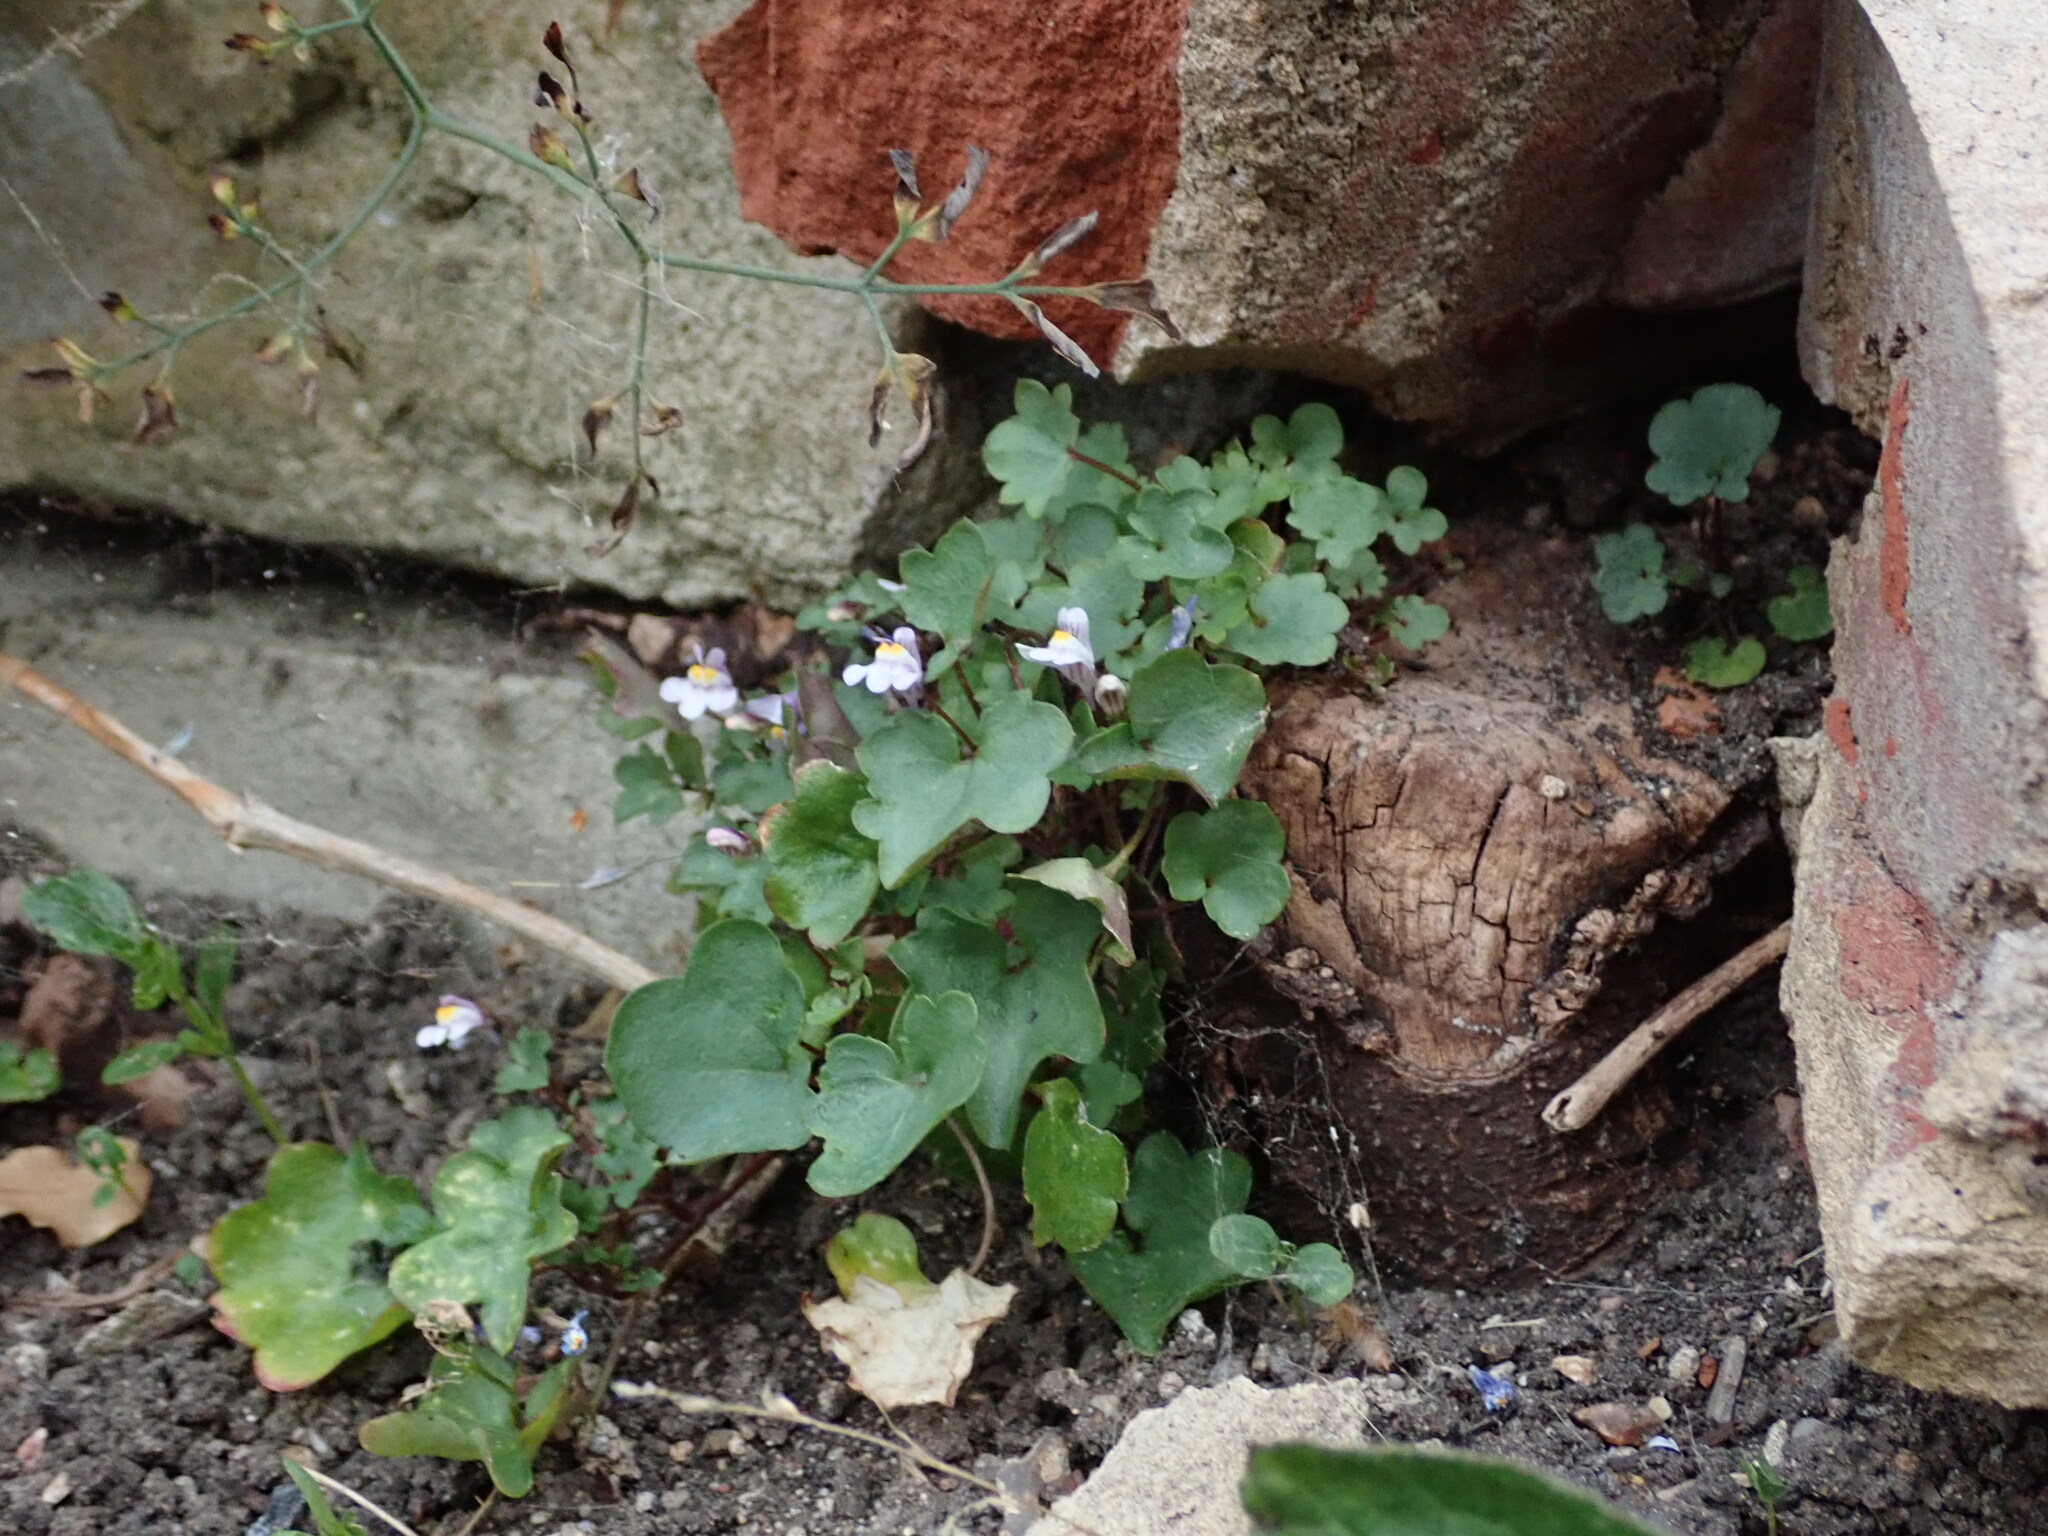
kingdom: Plantae
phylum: Tracheophyta
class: Magnoliopsida
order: Lamiales
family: Plantaginaceae
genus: Cymbalaria
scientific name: Cymbalaria muralis
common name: Ivy-leaved toadflax
